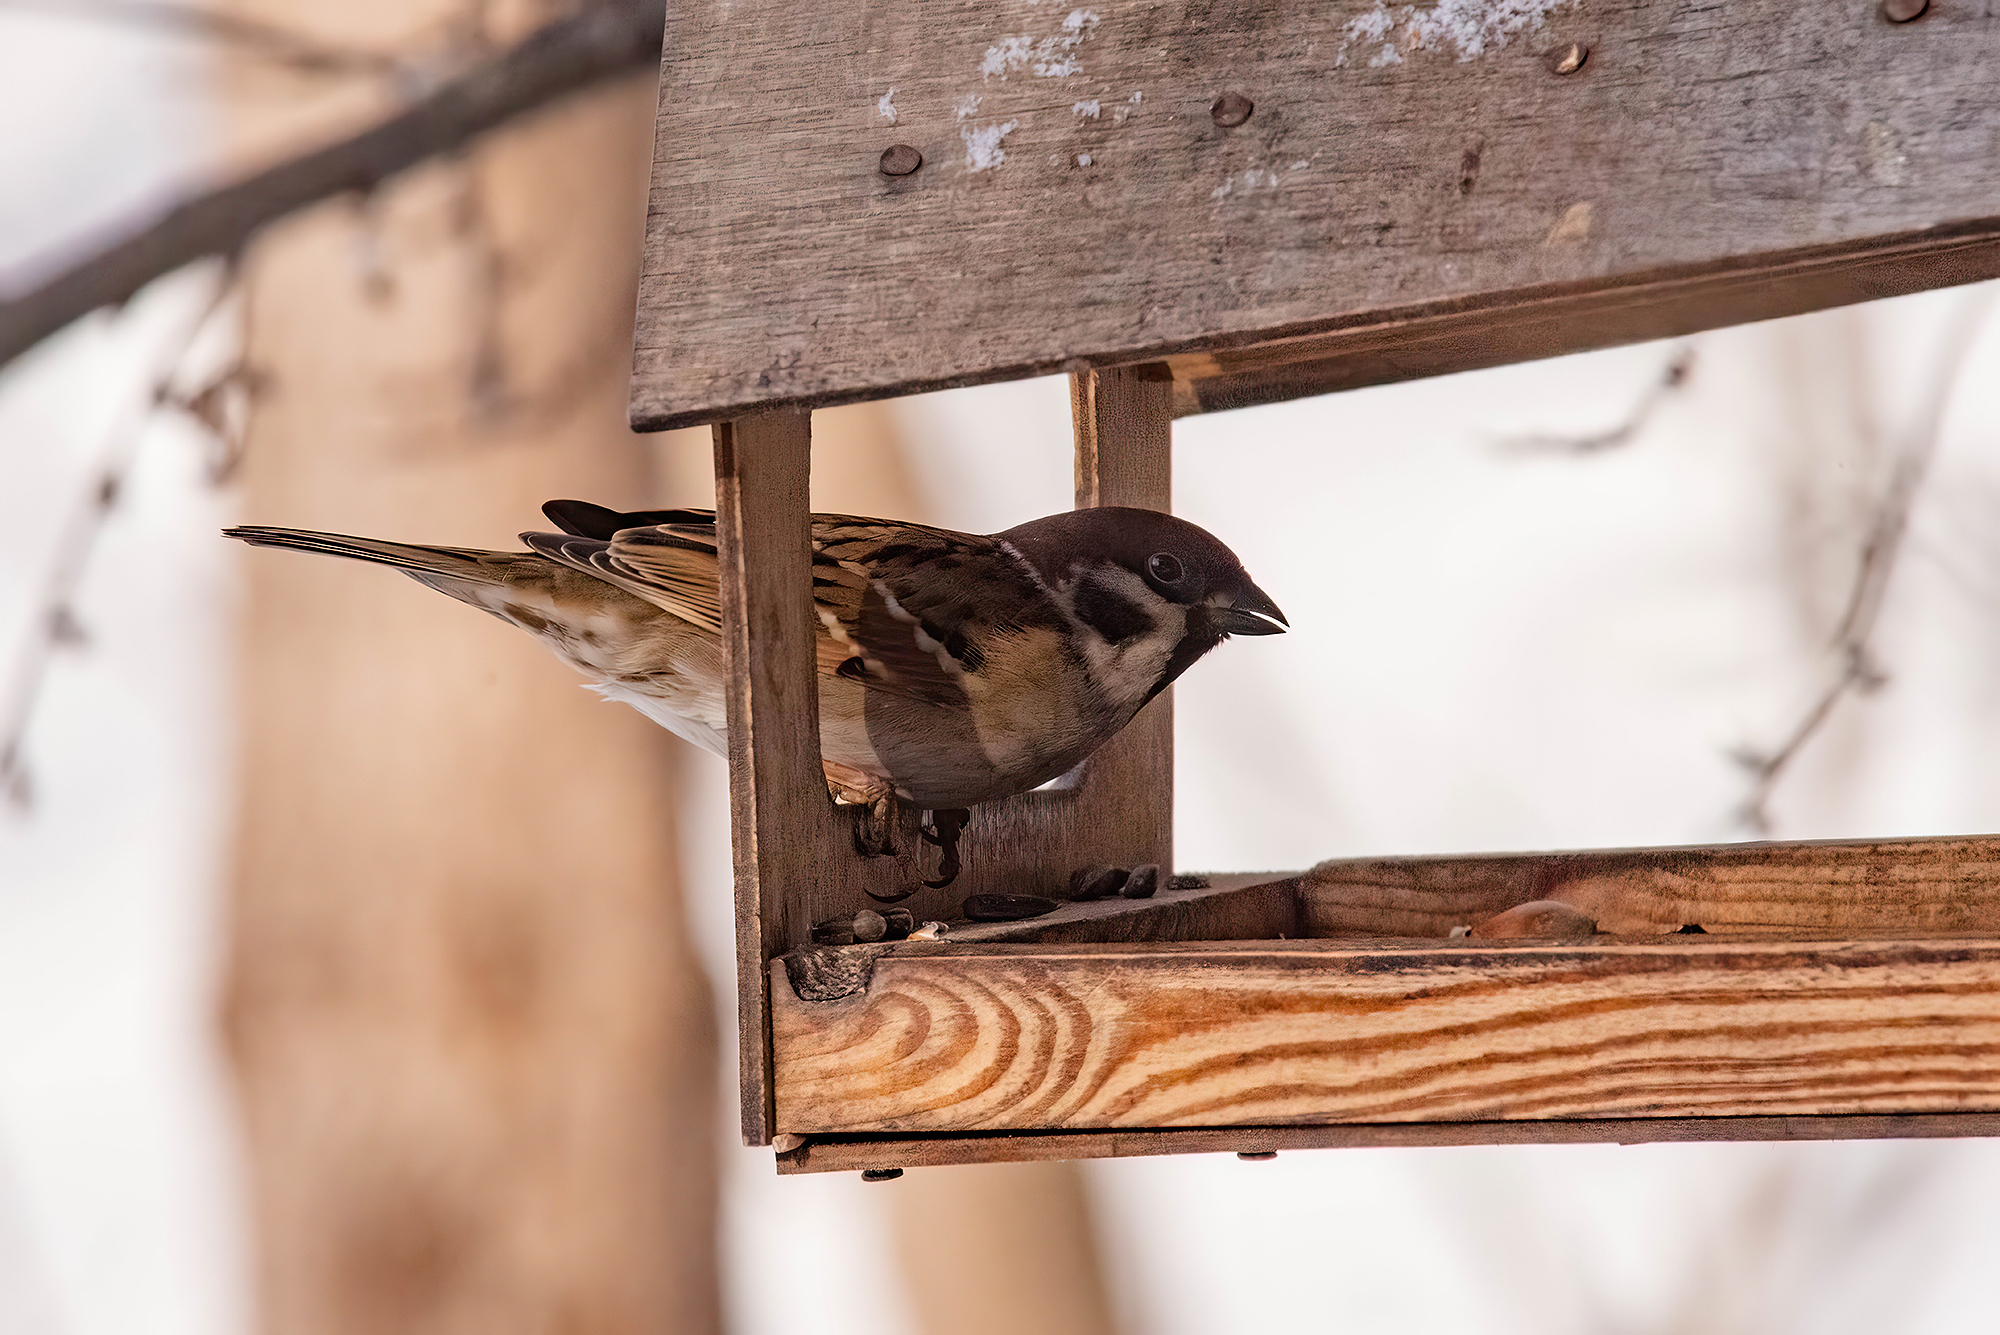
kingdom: Animalia
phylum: Chordata
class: Aves
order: Passeriformes
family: Passeridae
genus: Passer
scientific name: Passer montanus
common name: Eurasian tree sparrow
